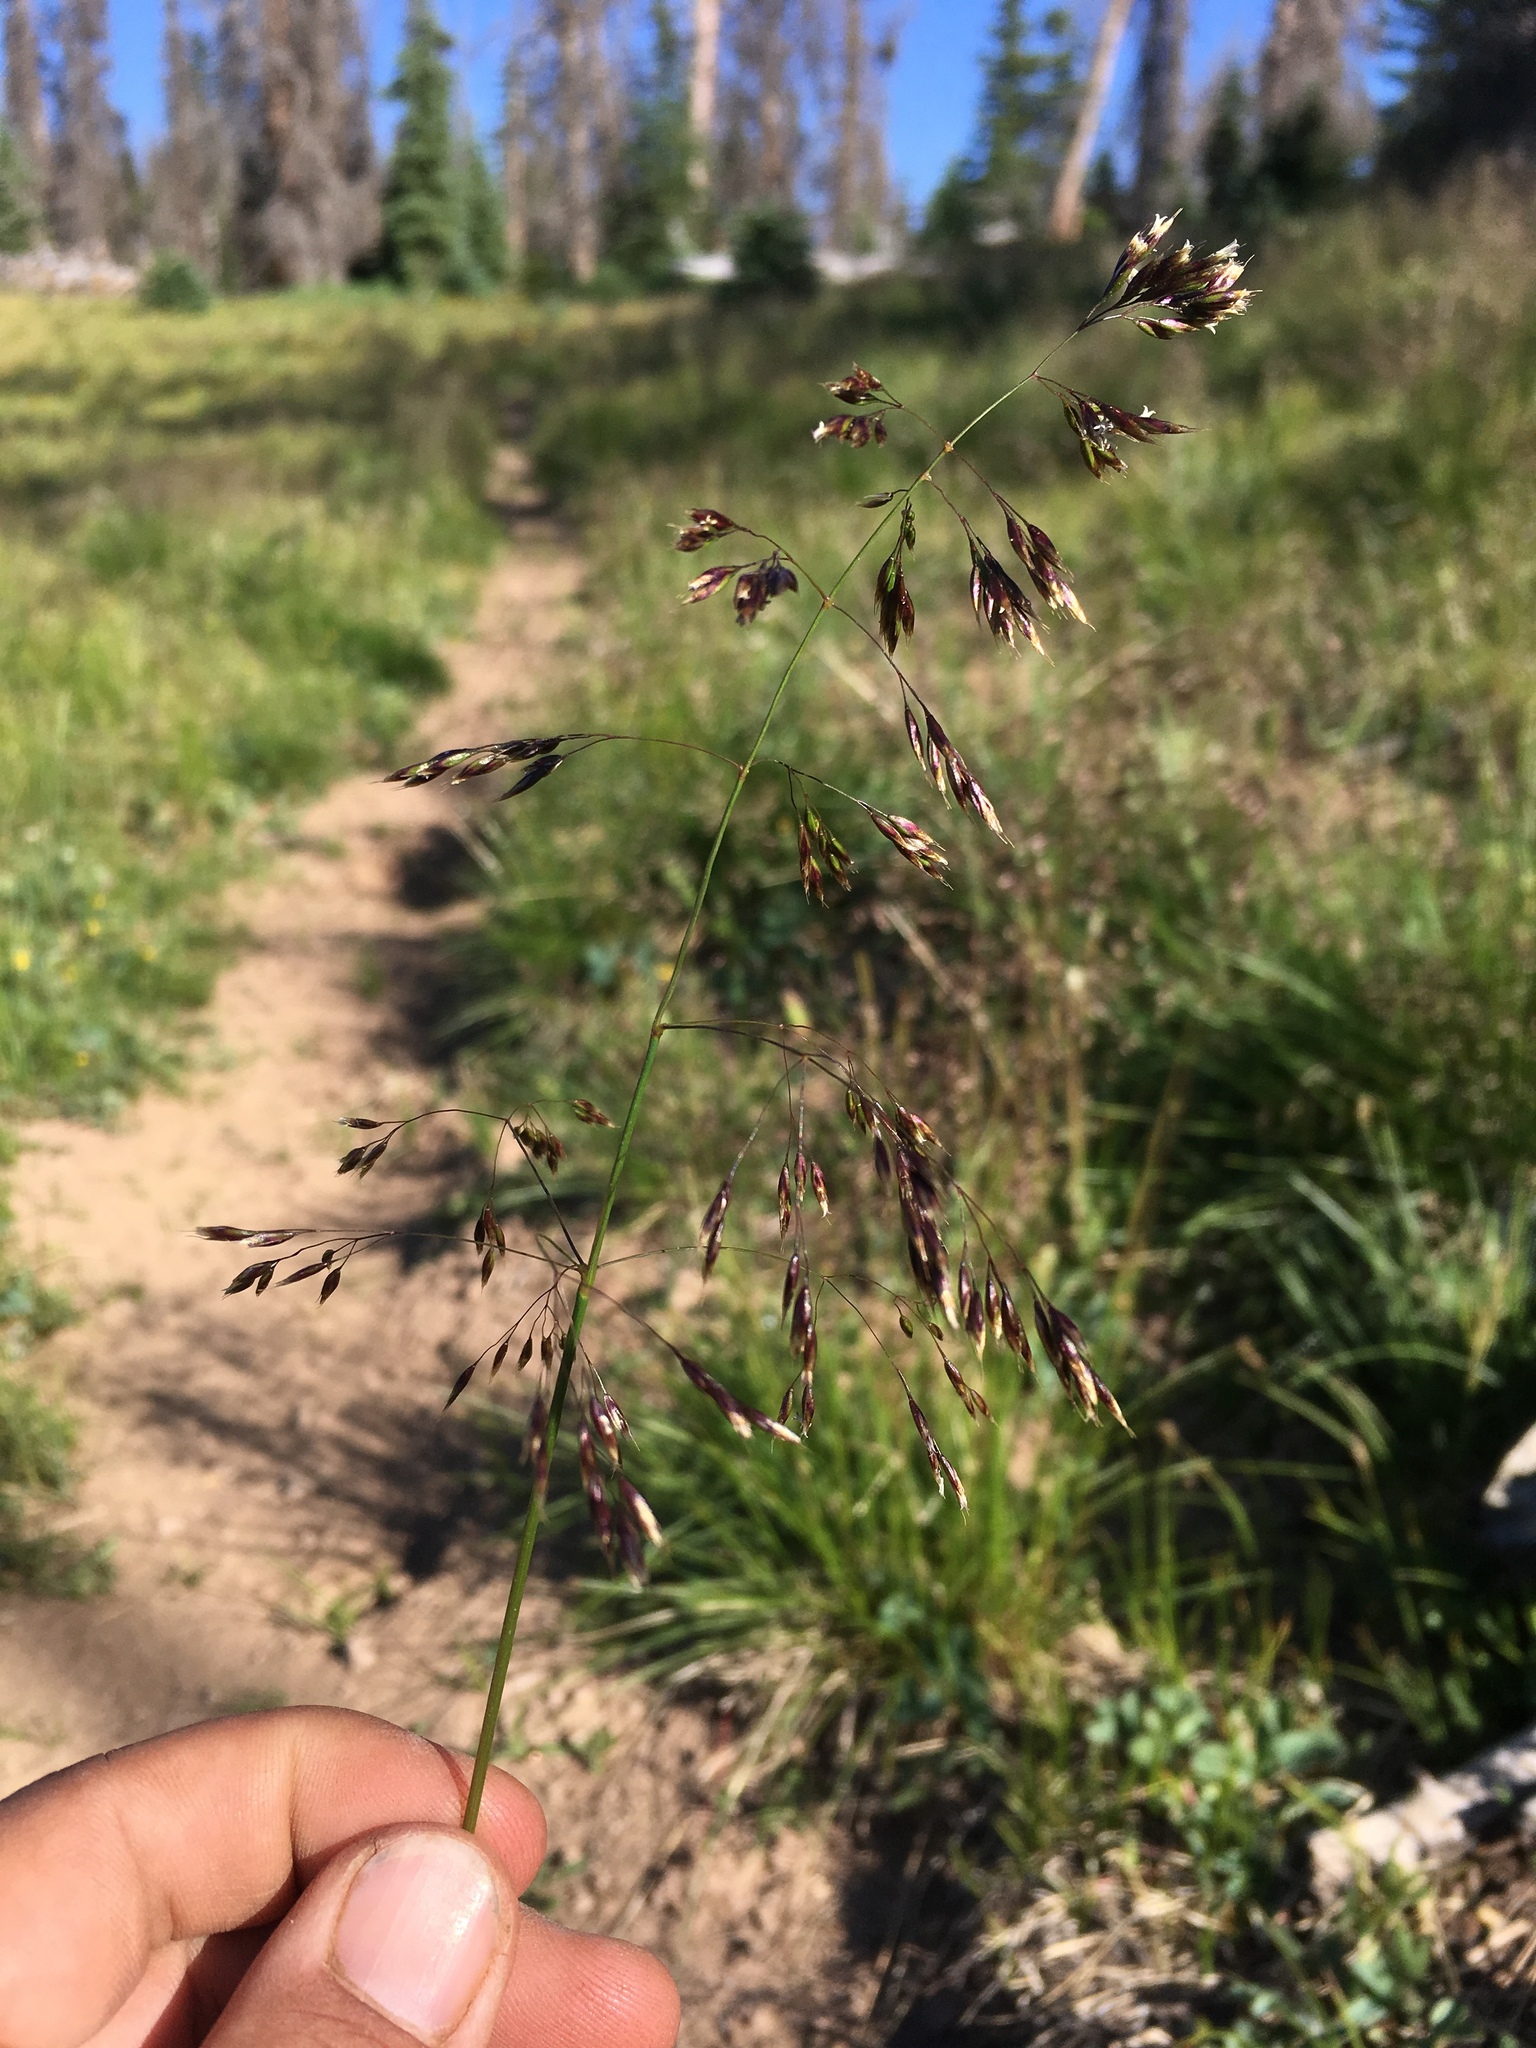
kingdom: Plantae
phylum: Tracheophyta
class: Liliopsida
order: Poales
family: Poaceae
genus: Deschampsia
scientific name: Deschampsia cespitosa
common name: Tufted hair-grass
